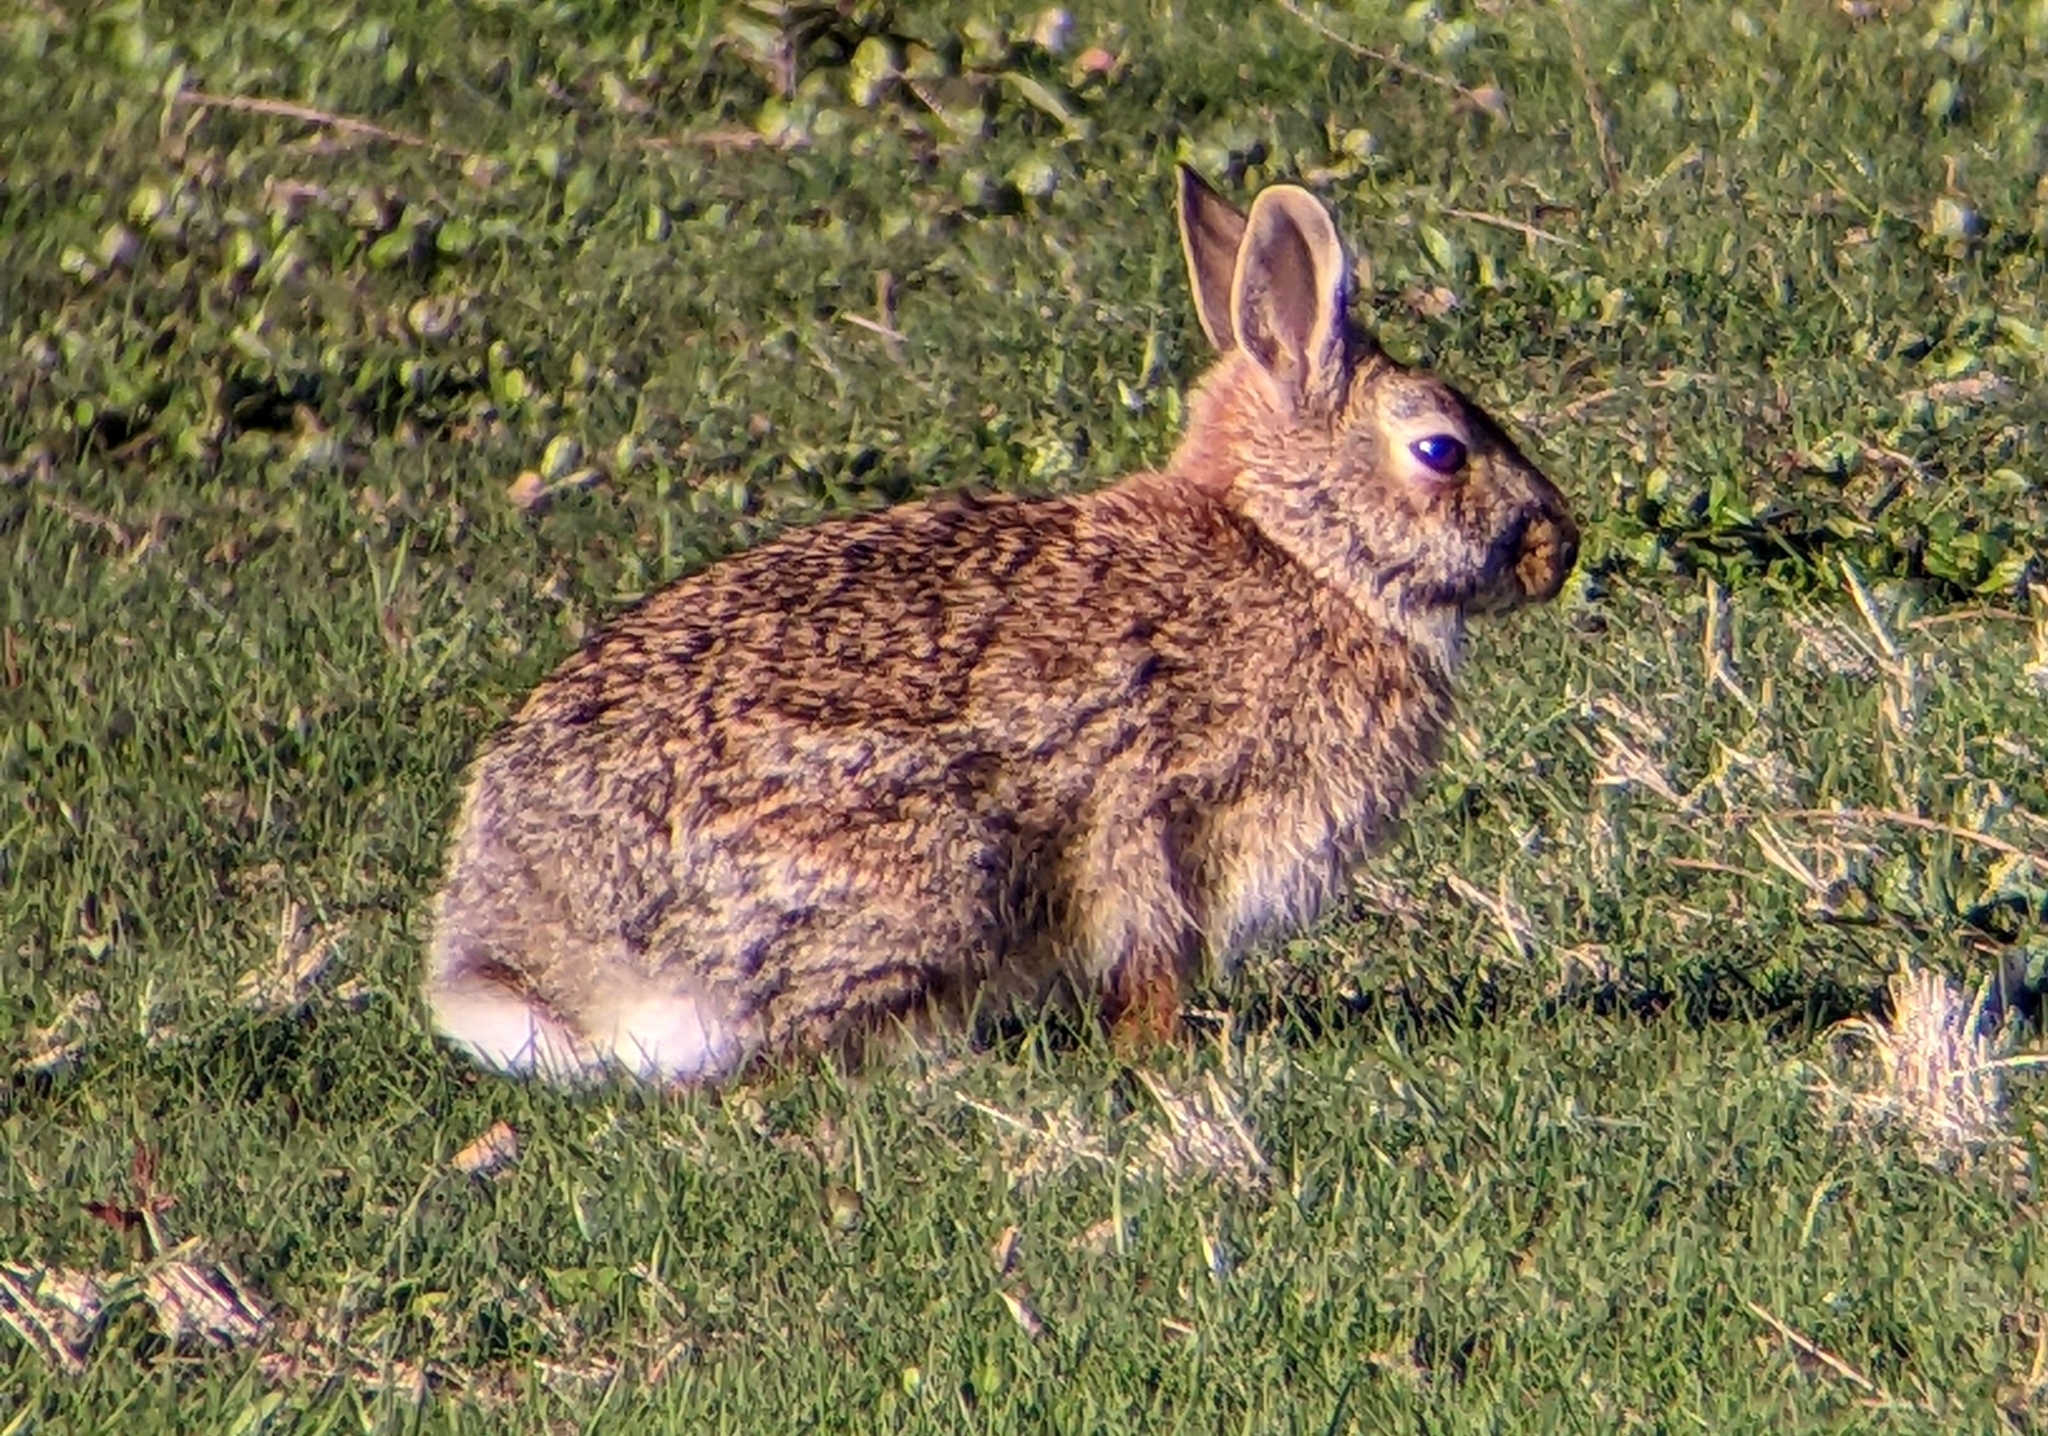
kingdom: Animalia
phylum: Chordata
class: Mammalia
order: Lagomorpha
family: Leporidae
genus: Sylvilagus
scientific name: Sylvilagus floridanus
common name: Eastern cottontail
